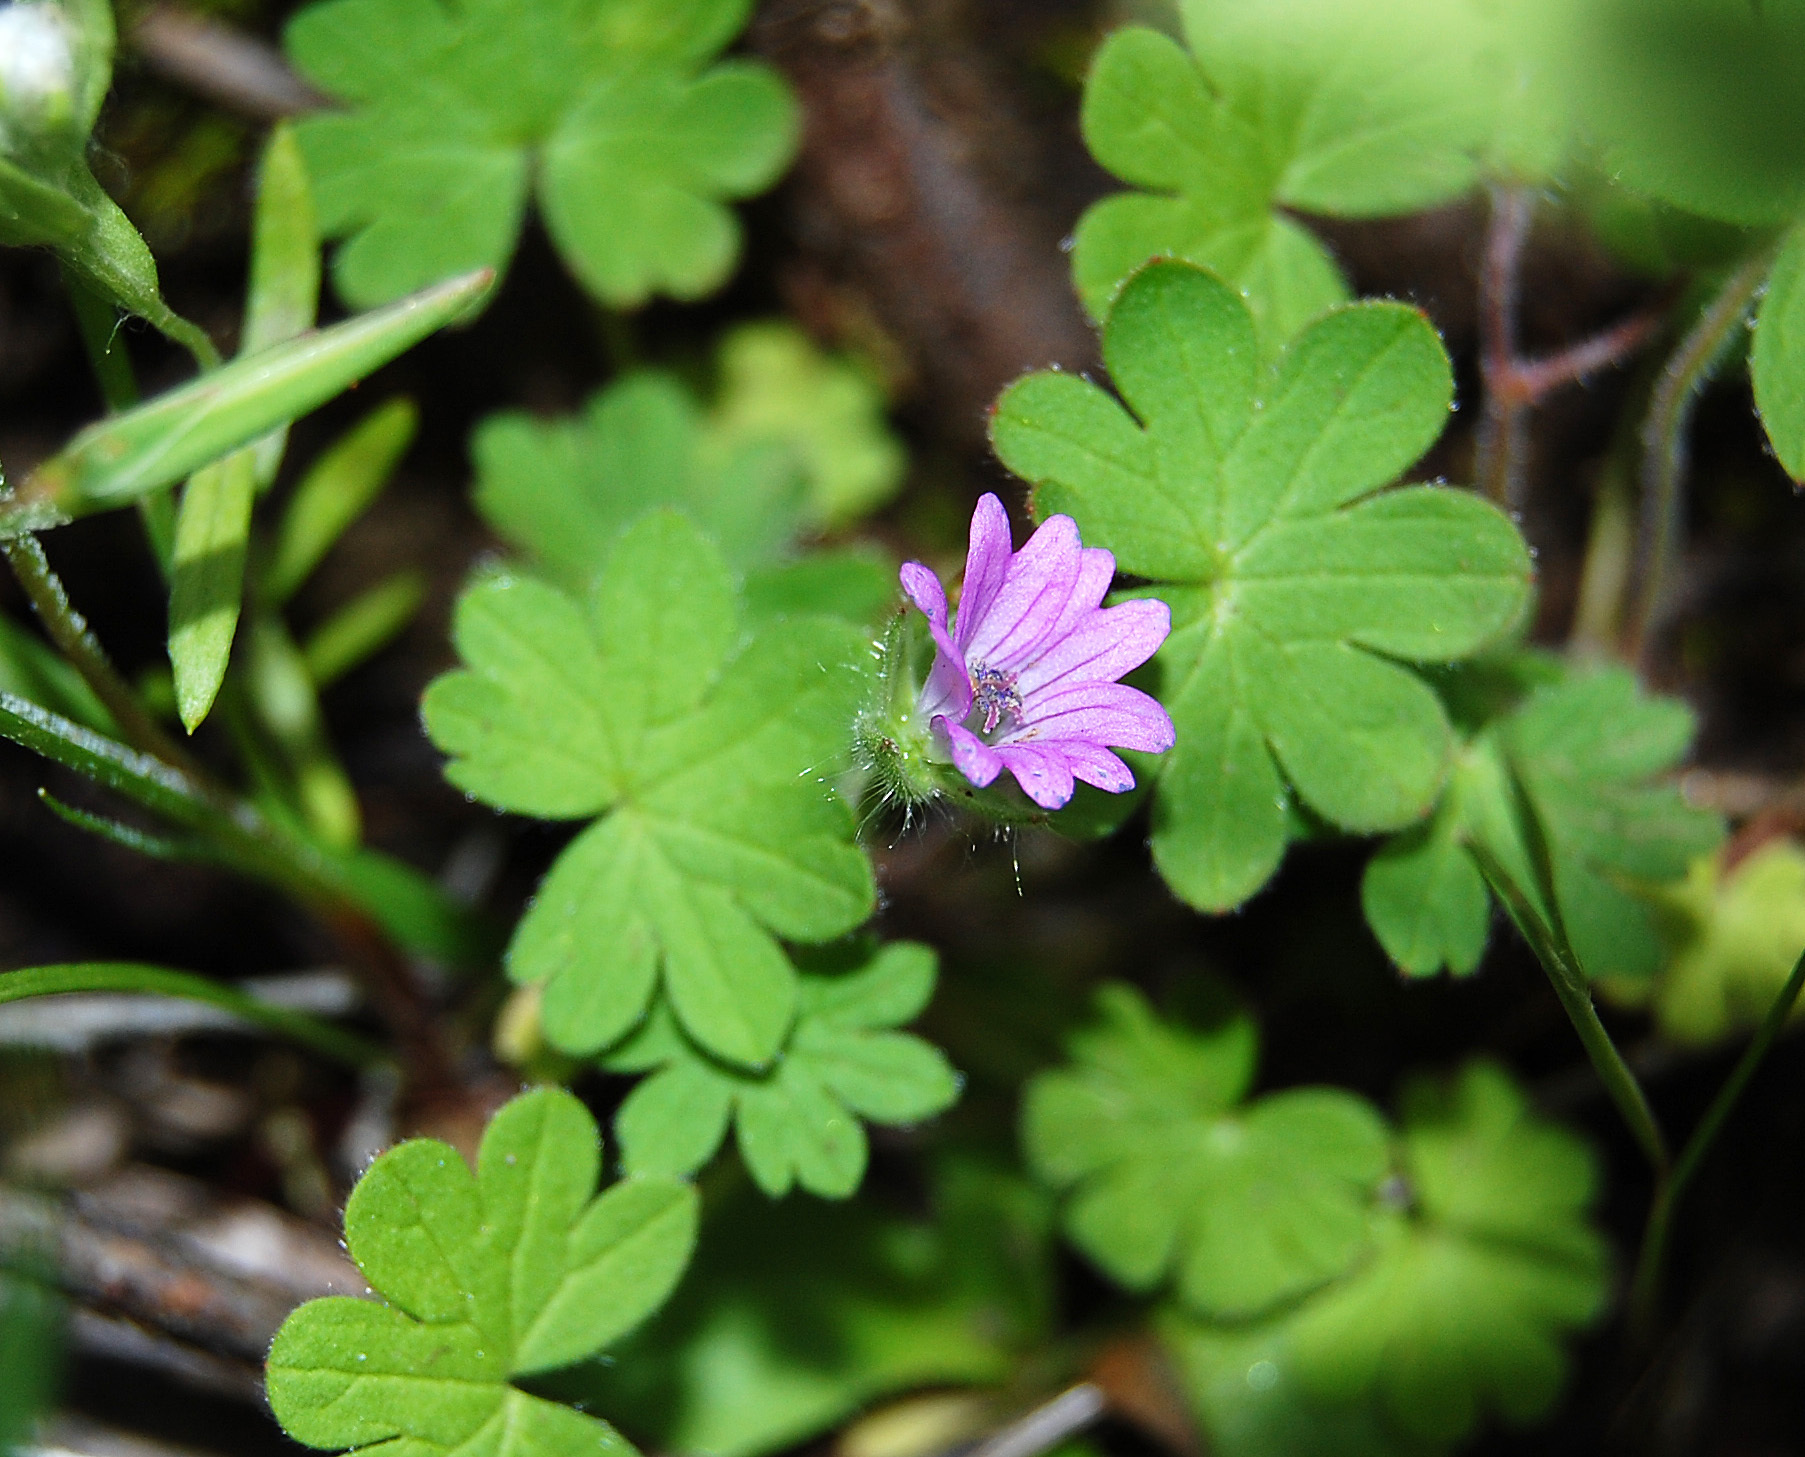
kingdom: Plantae
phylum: Tracheophyta
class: Magnoliopsida
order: Geraniales
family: Geraniaceae
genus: Geranium
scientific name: Geranium molle
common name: Dove's-foot crane's-bill
